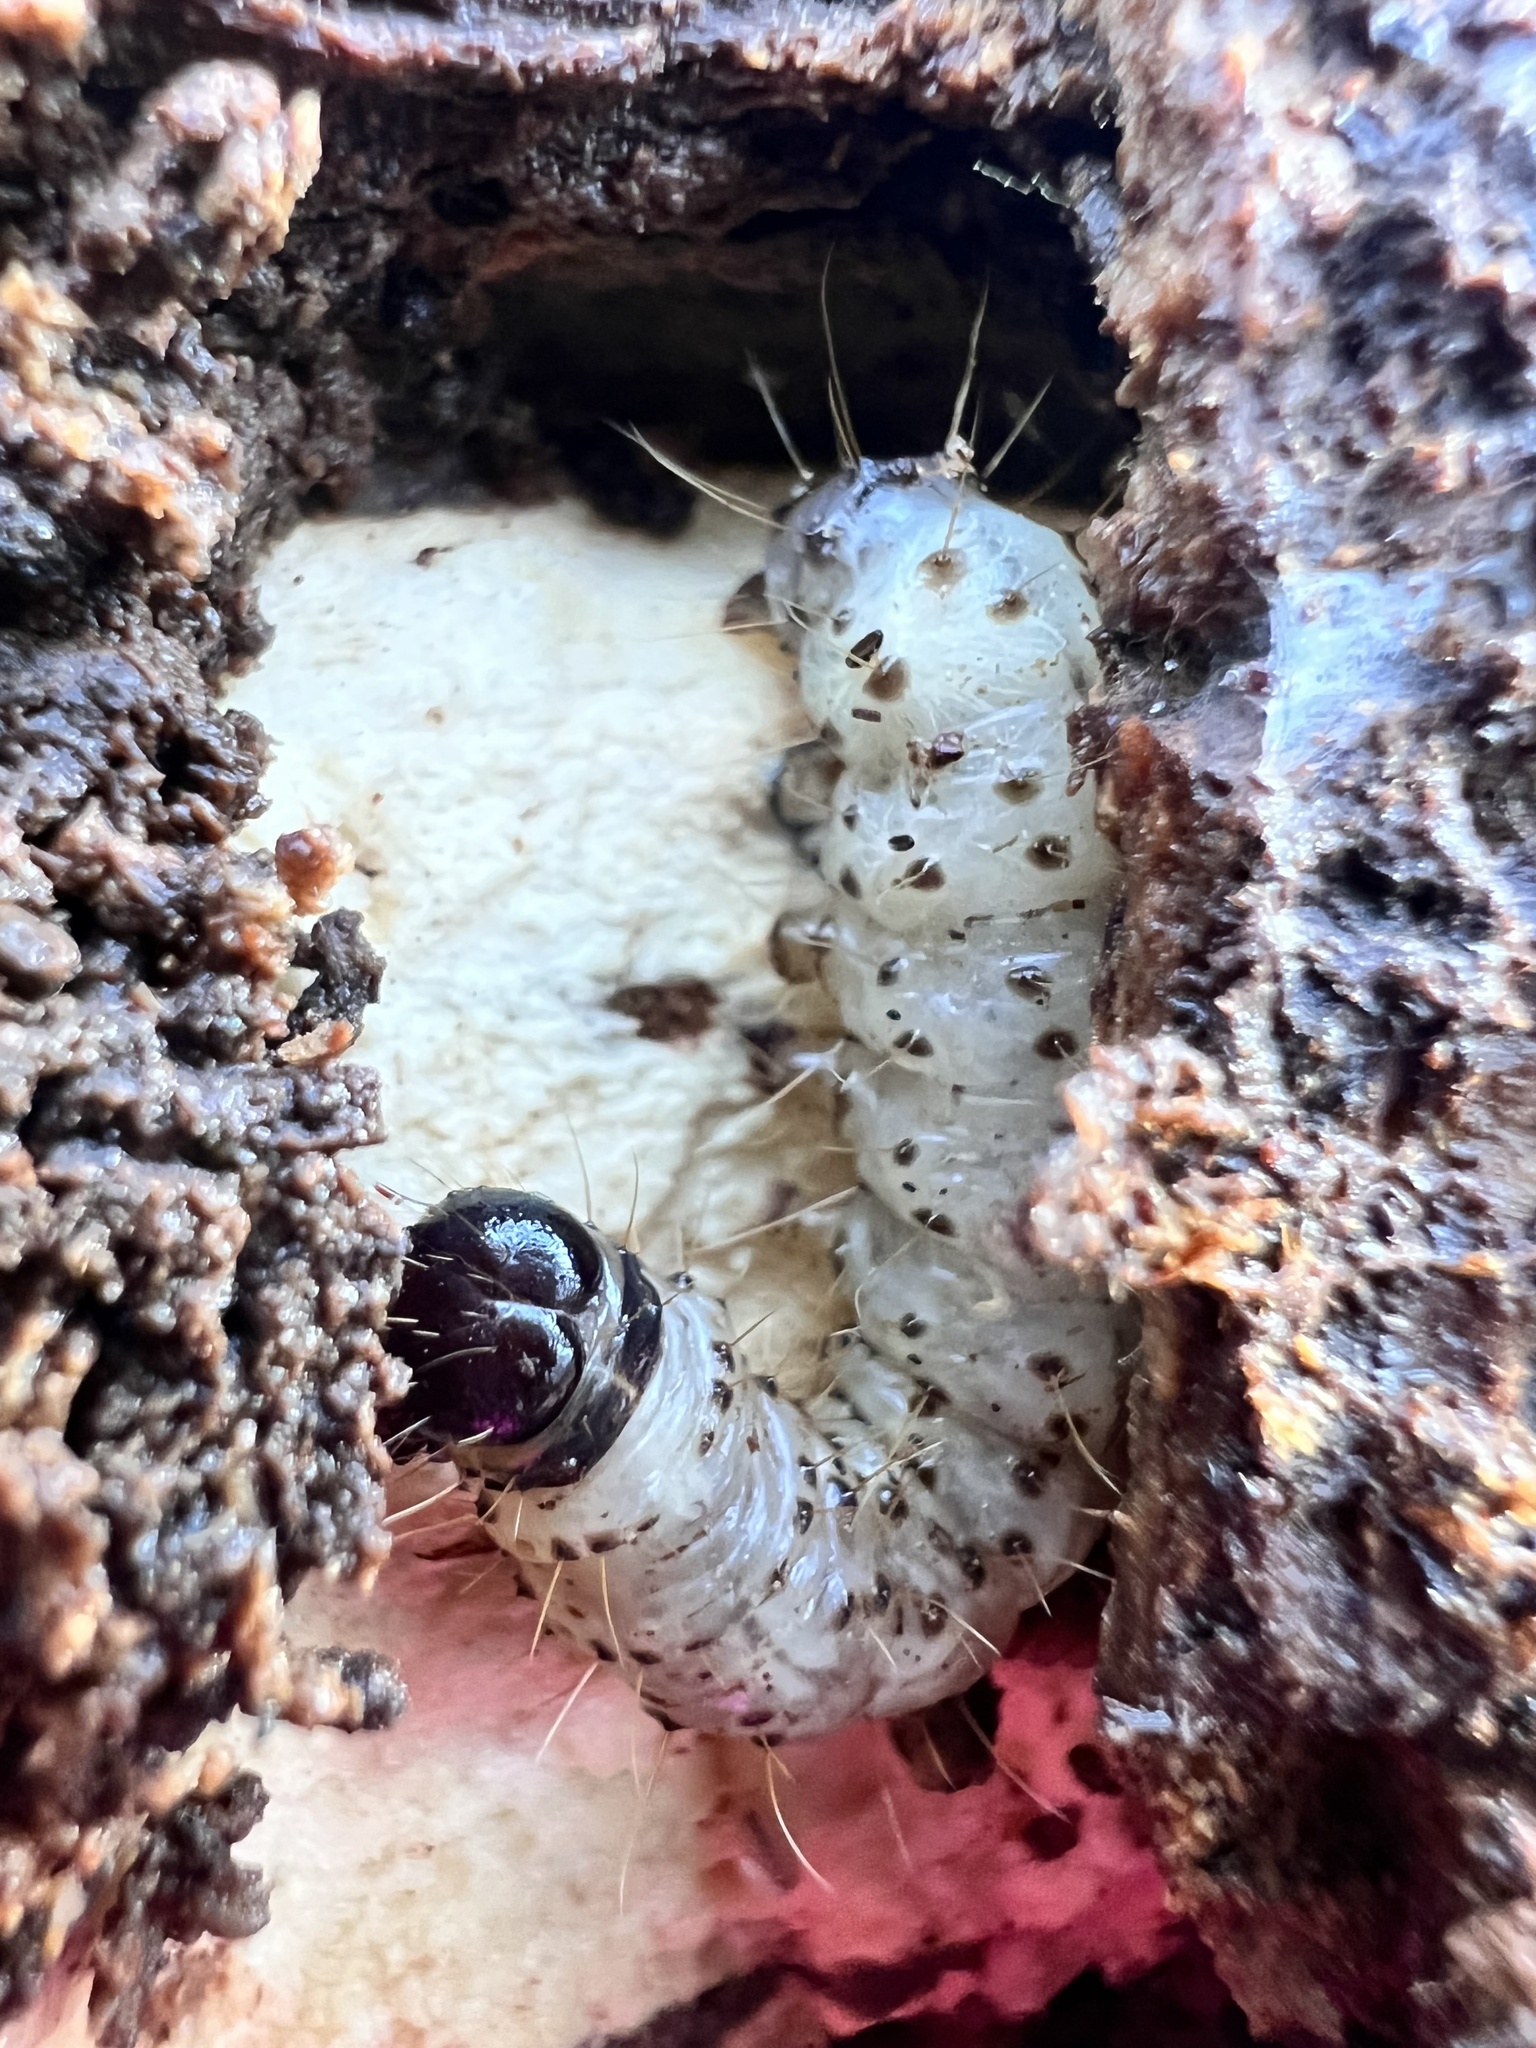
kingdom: Animalia
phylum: Arthropoda
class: Insecta
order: Lepidoptera
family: Erebidae
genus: Scolecocampa
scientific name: Scolecocampa liburna
